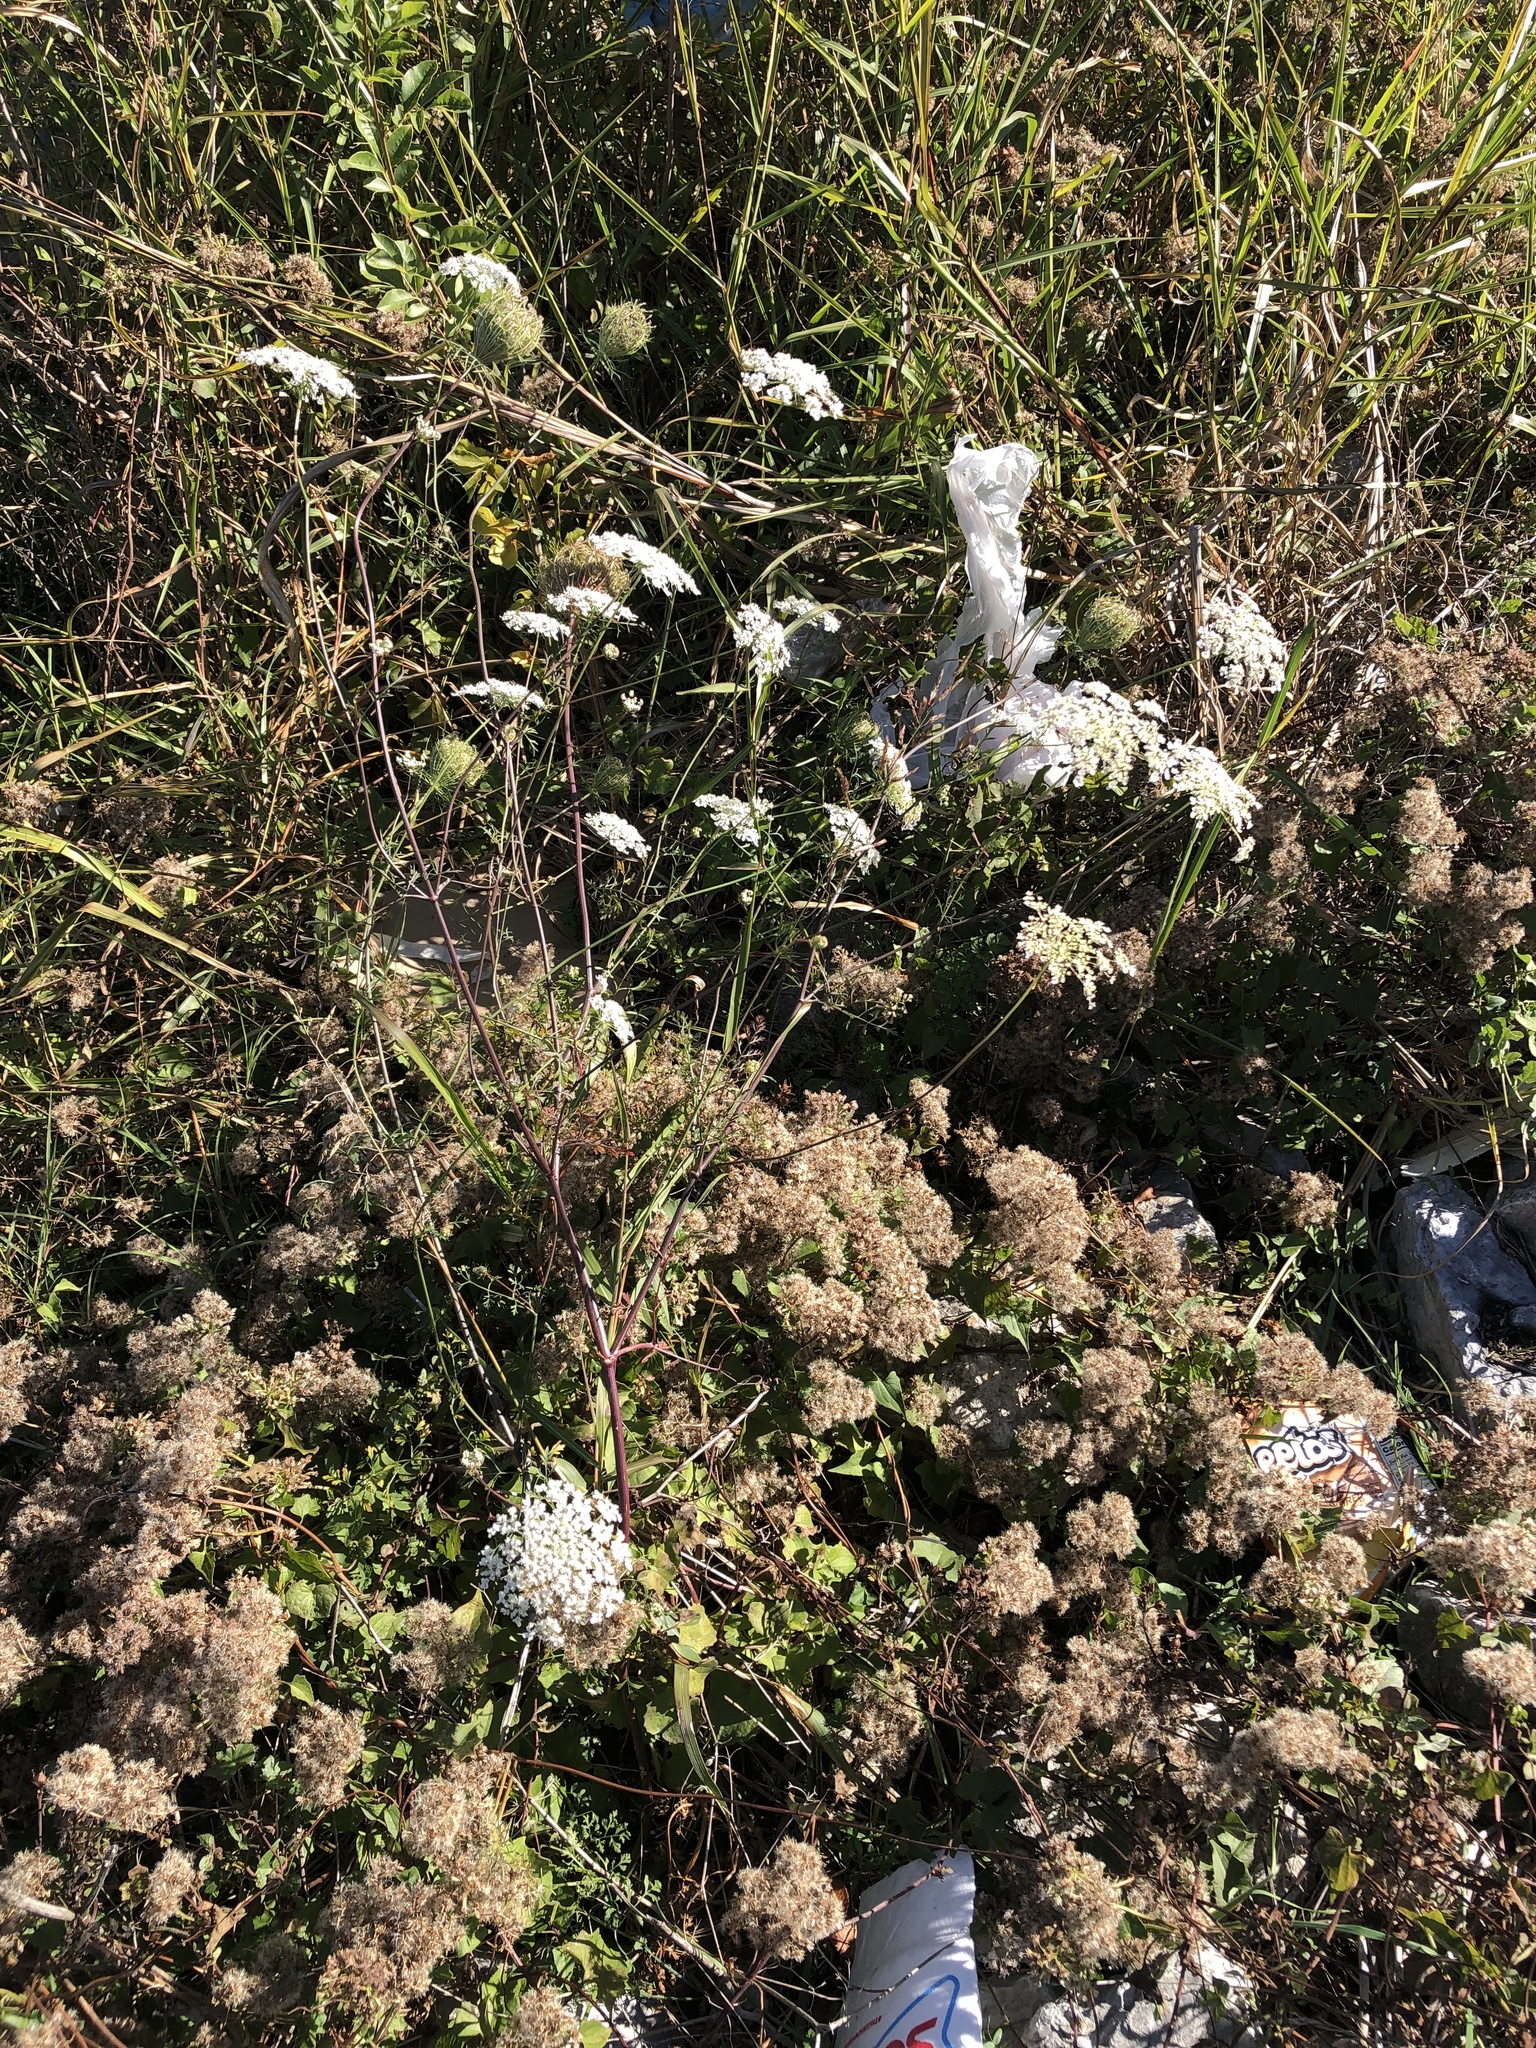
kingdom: Plantae
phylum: Tracheophyta
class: Magnoliopsida
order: Apiales
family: Apiaceae
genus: Daucus
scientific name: Daucus carota
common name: Wild carrot
